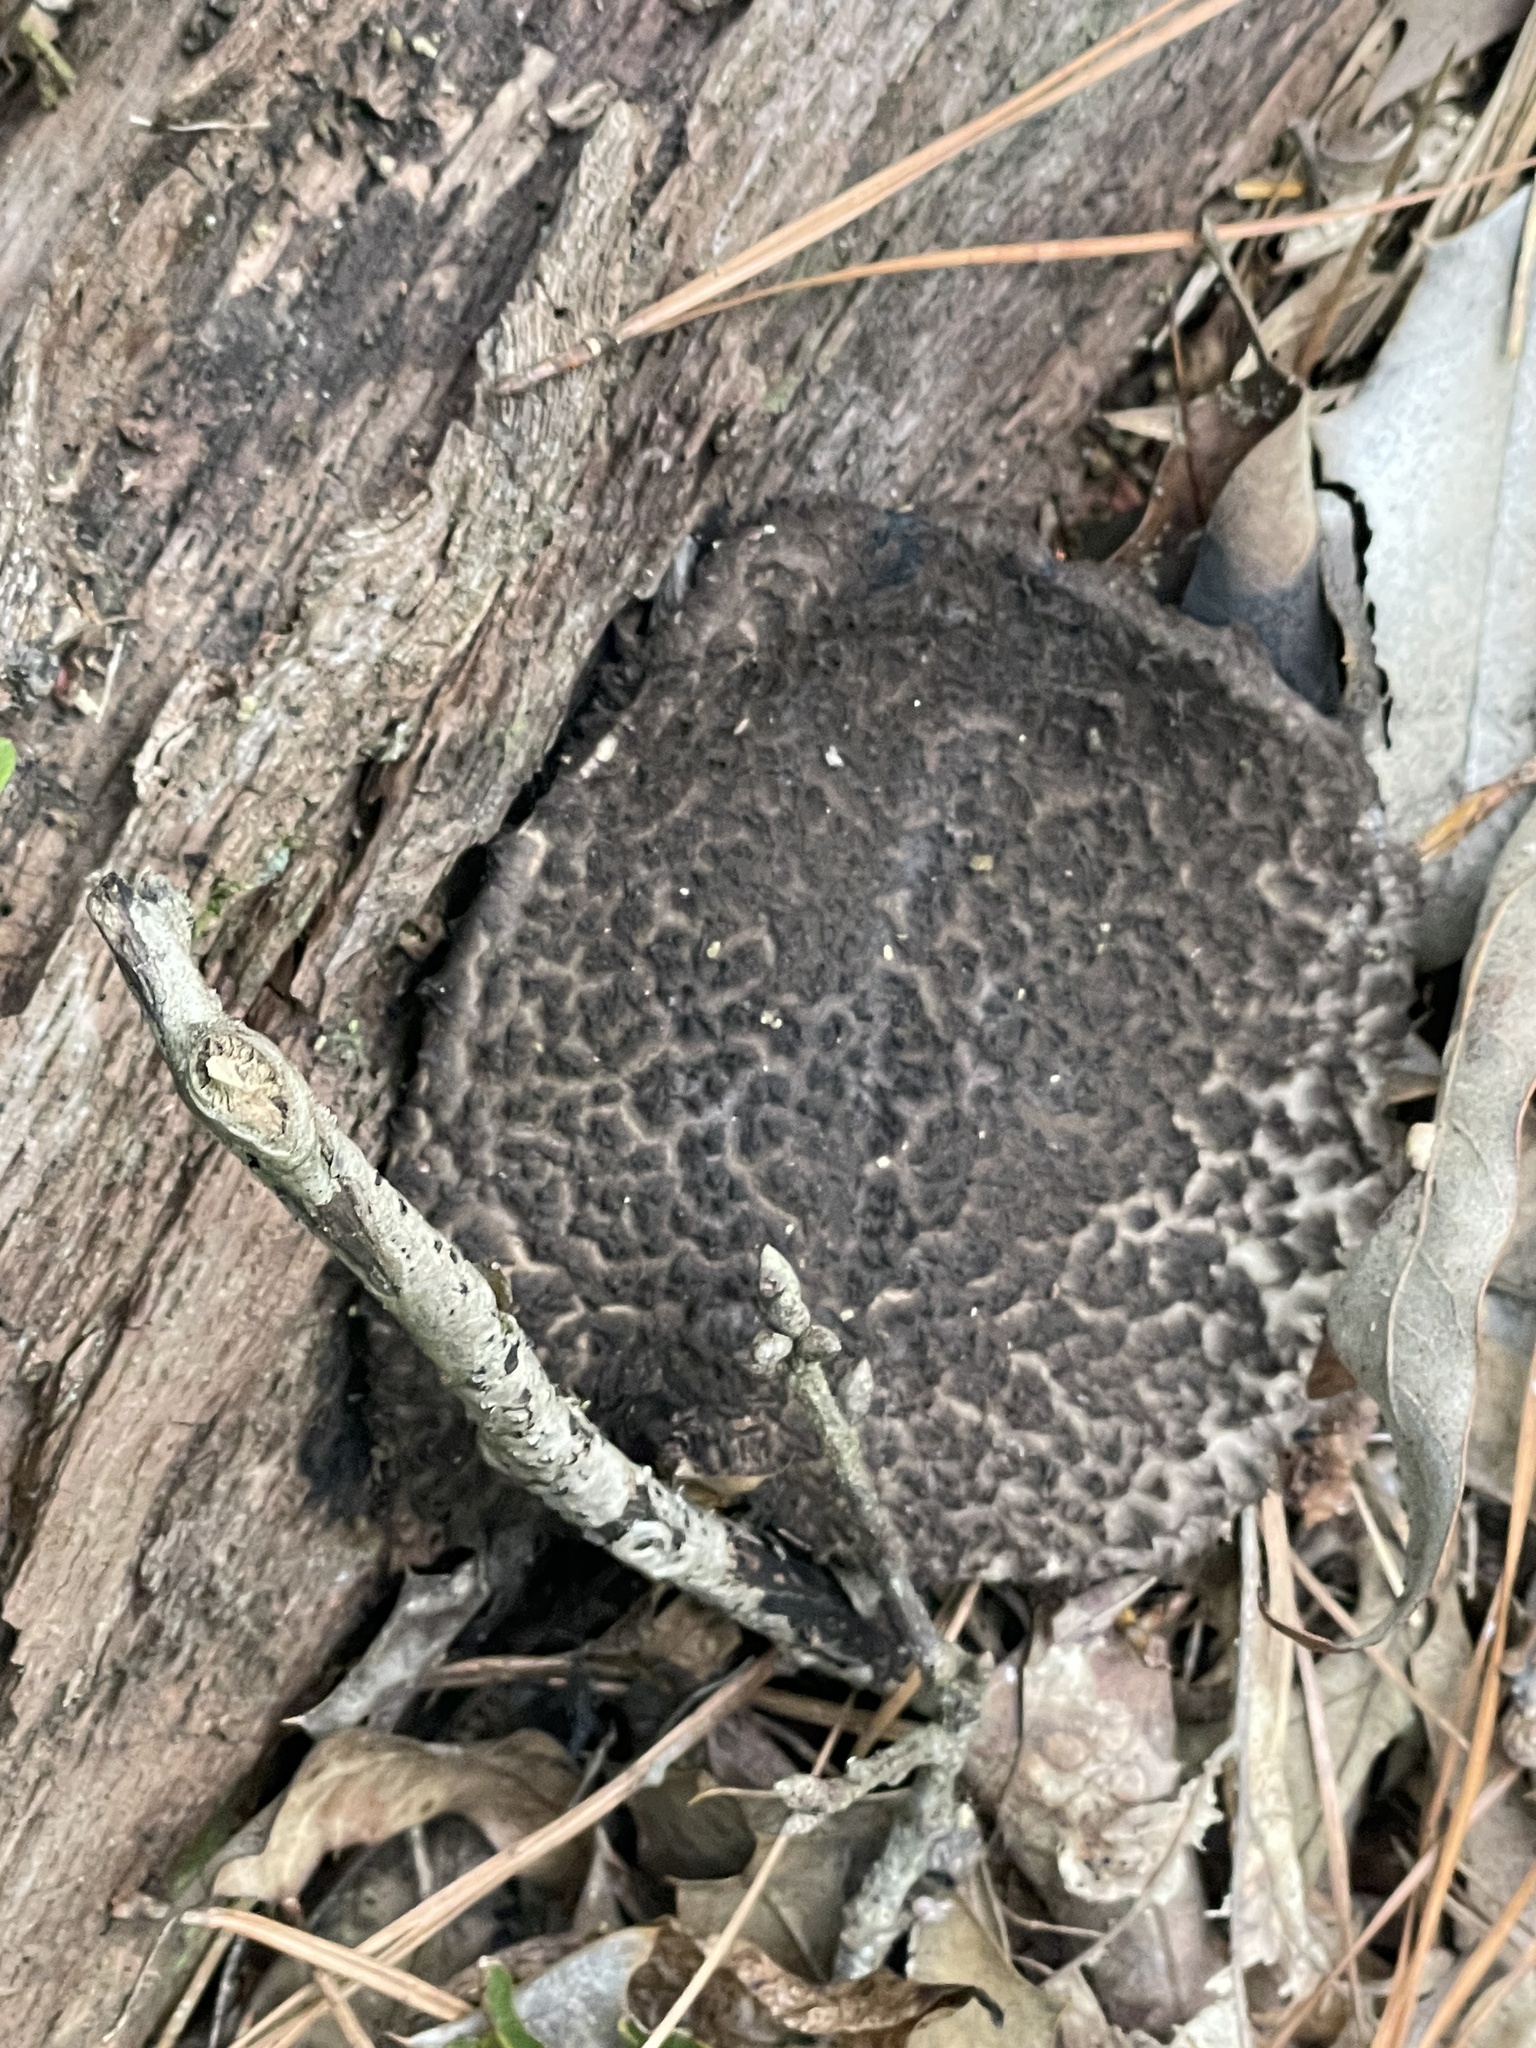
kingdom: Fungi
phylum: Basidiomycota
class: Agaricomycetes
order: Boletales
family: Boletaceae
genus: Strobilomyces
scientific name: Strobilomyces strobilaceus
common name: Old man of the woods
